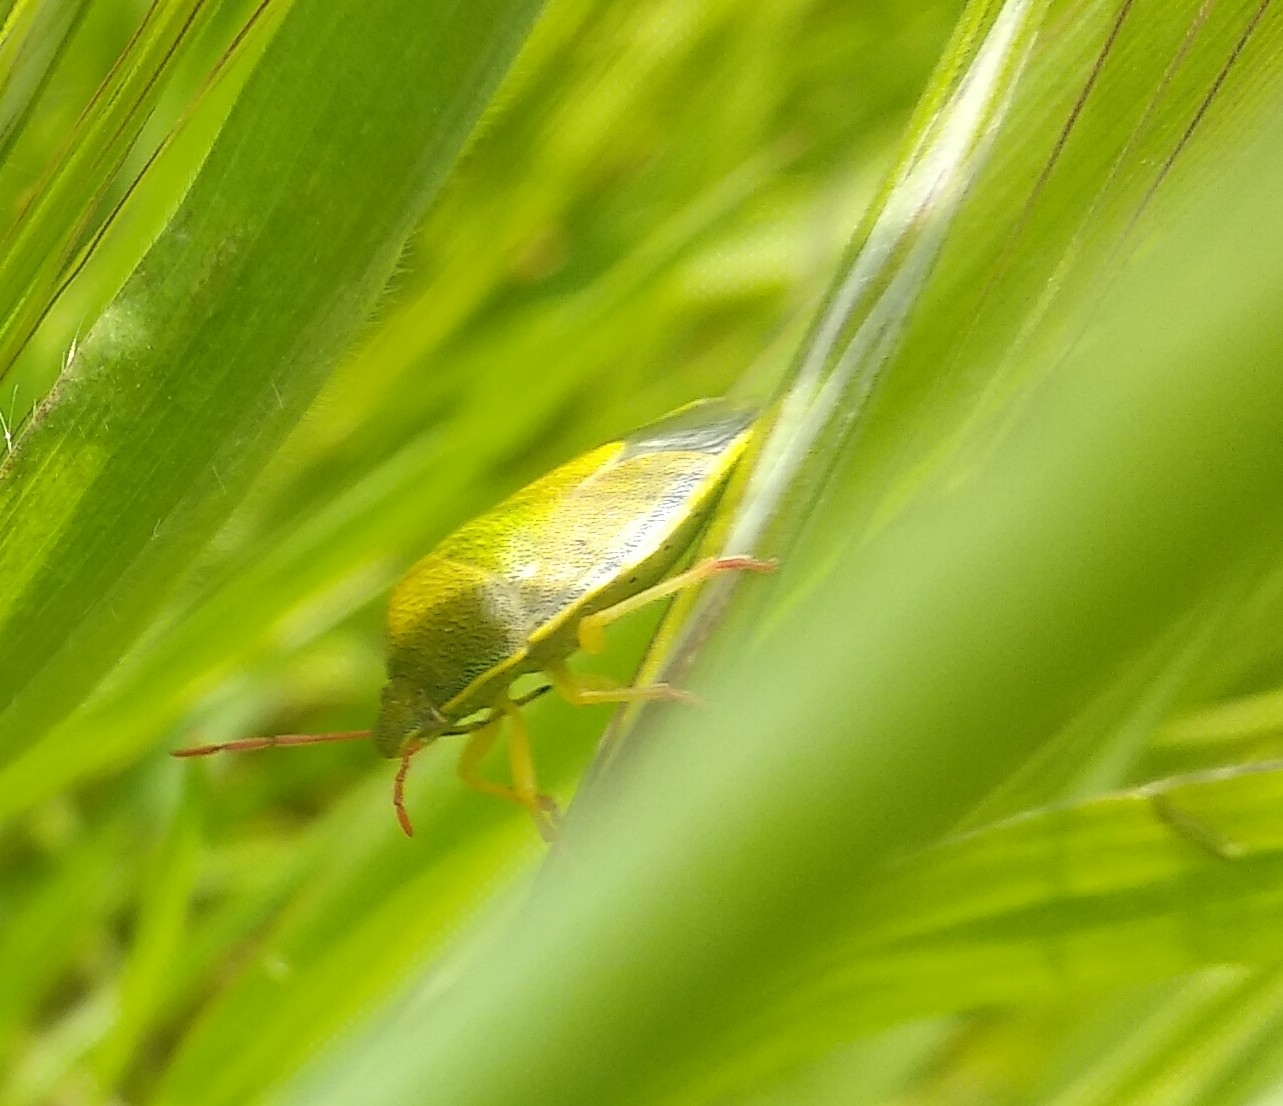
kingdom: Animalia
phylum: Arthropoda
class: Insecta
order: Hemiptera
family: Pentatomidae
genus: Piezodorus
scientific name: Piezodorus lituratus
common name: Stink bug
